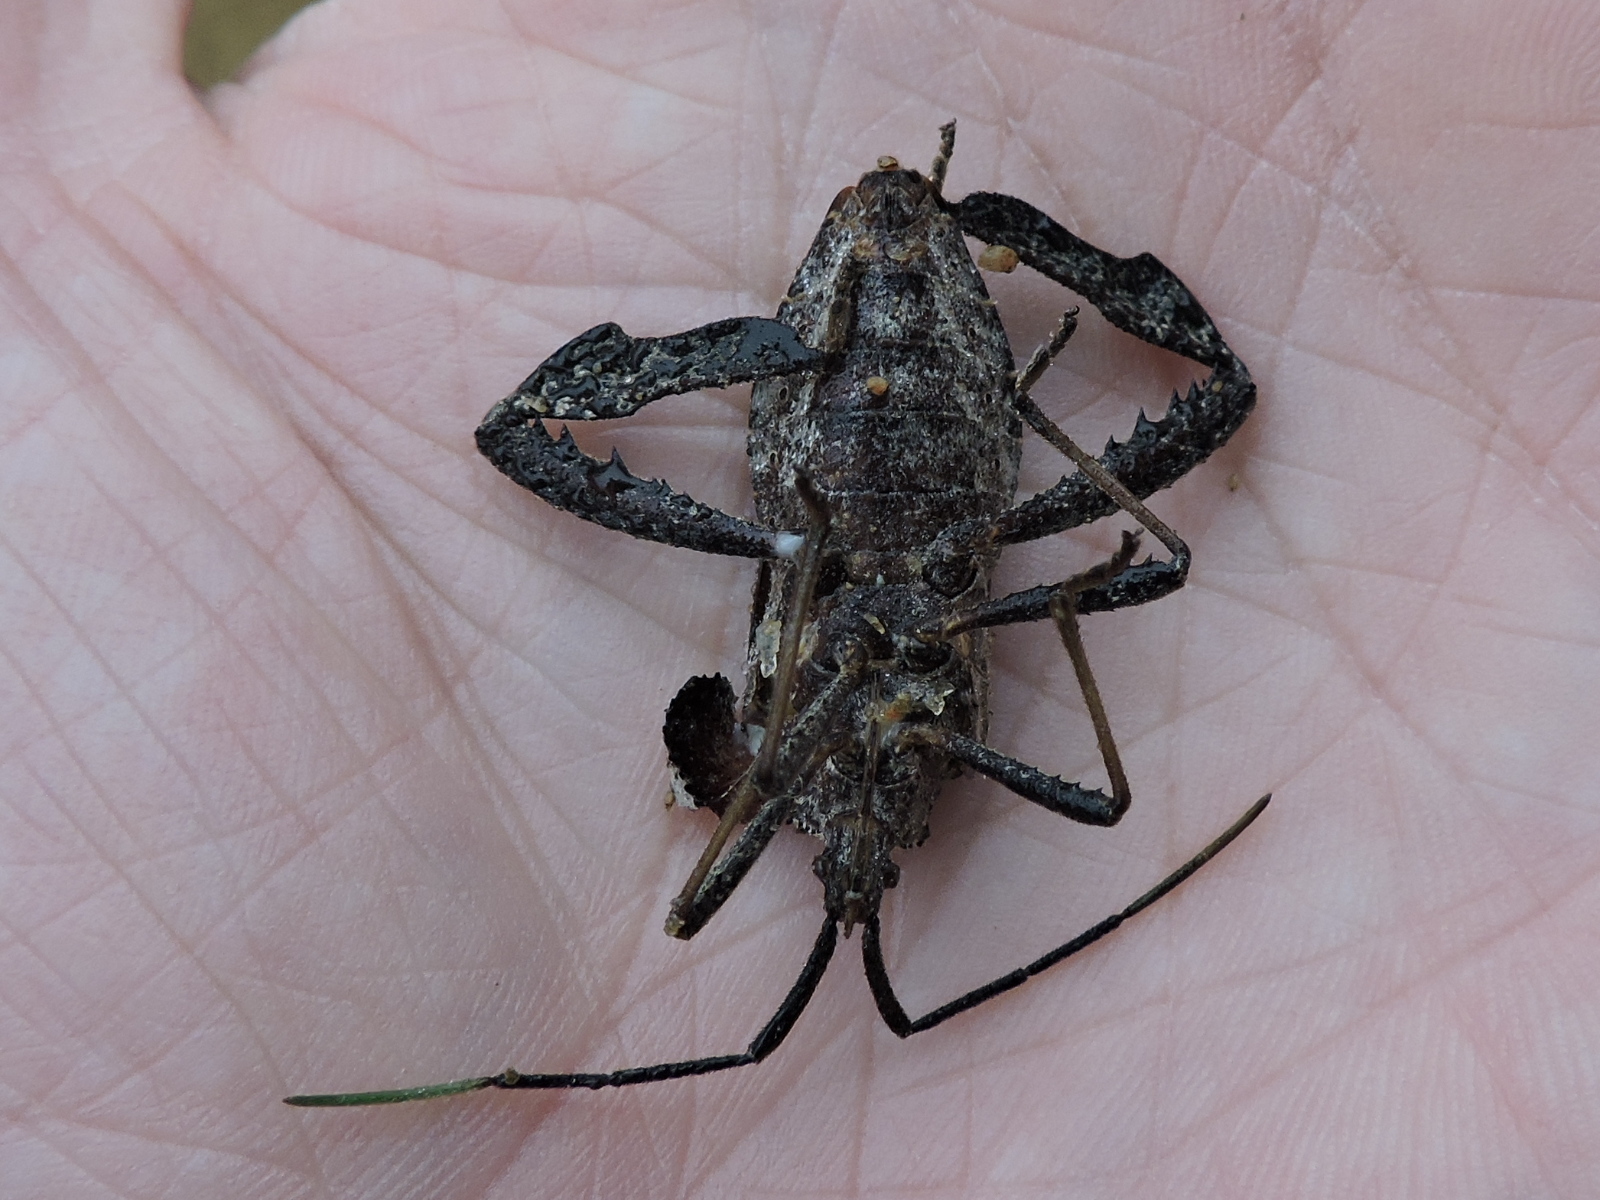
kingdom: Animalia
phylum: Arthropoda
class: Insecta
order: Hemiptera
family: Coreidae
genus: Acanthocephala
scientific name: Acanthocephala alata
